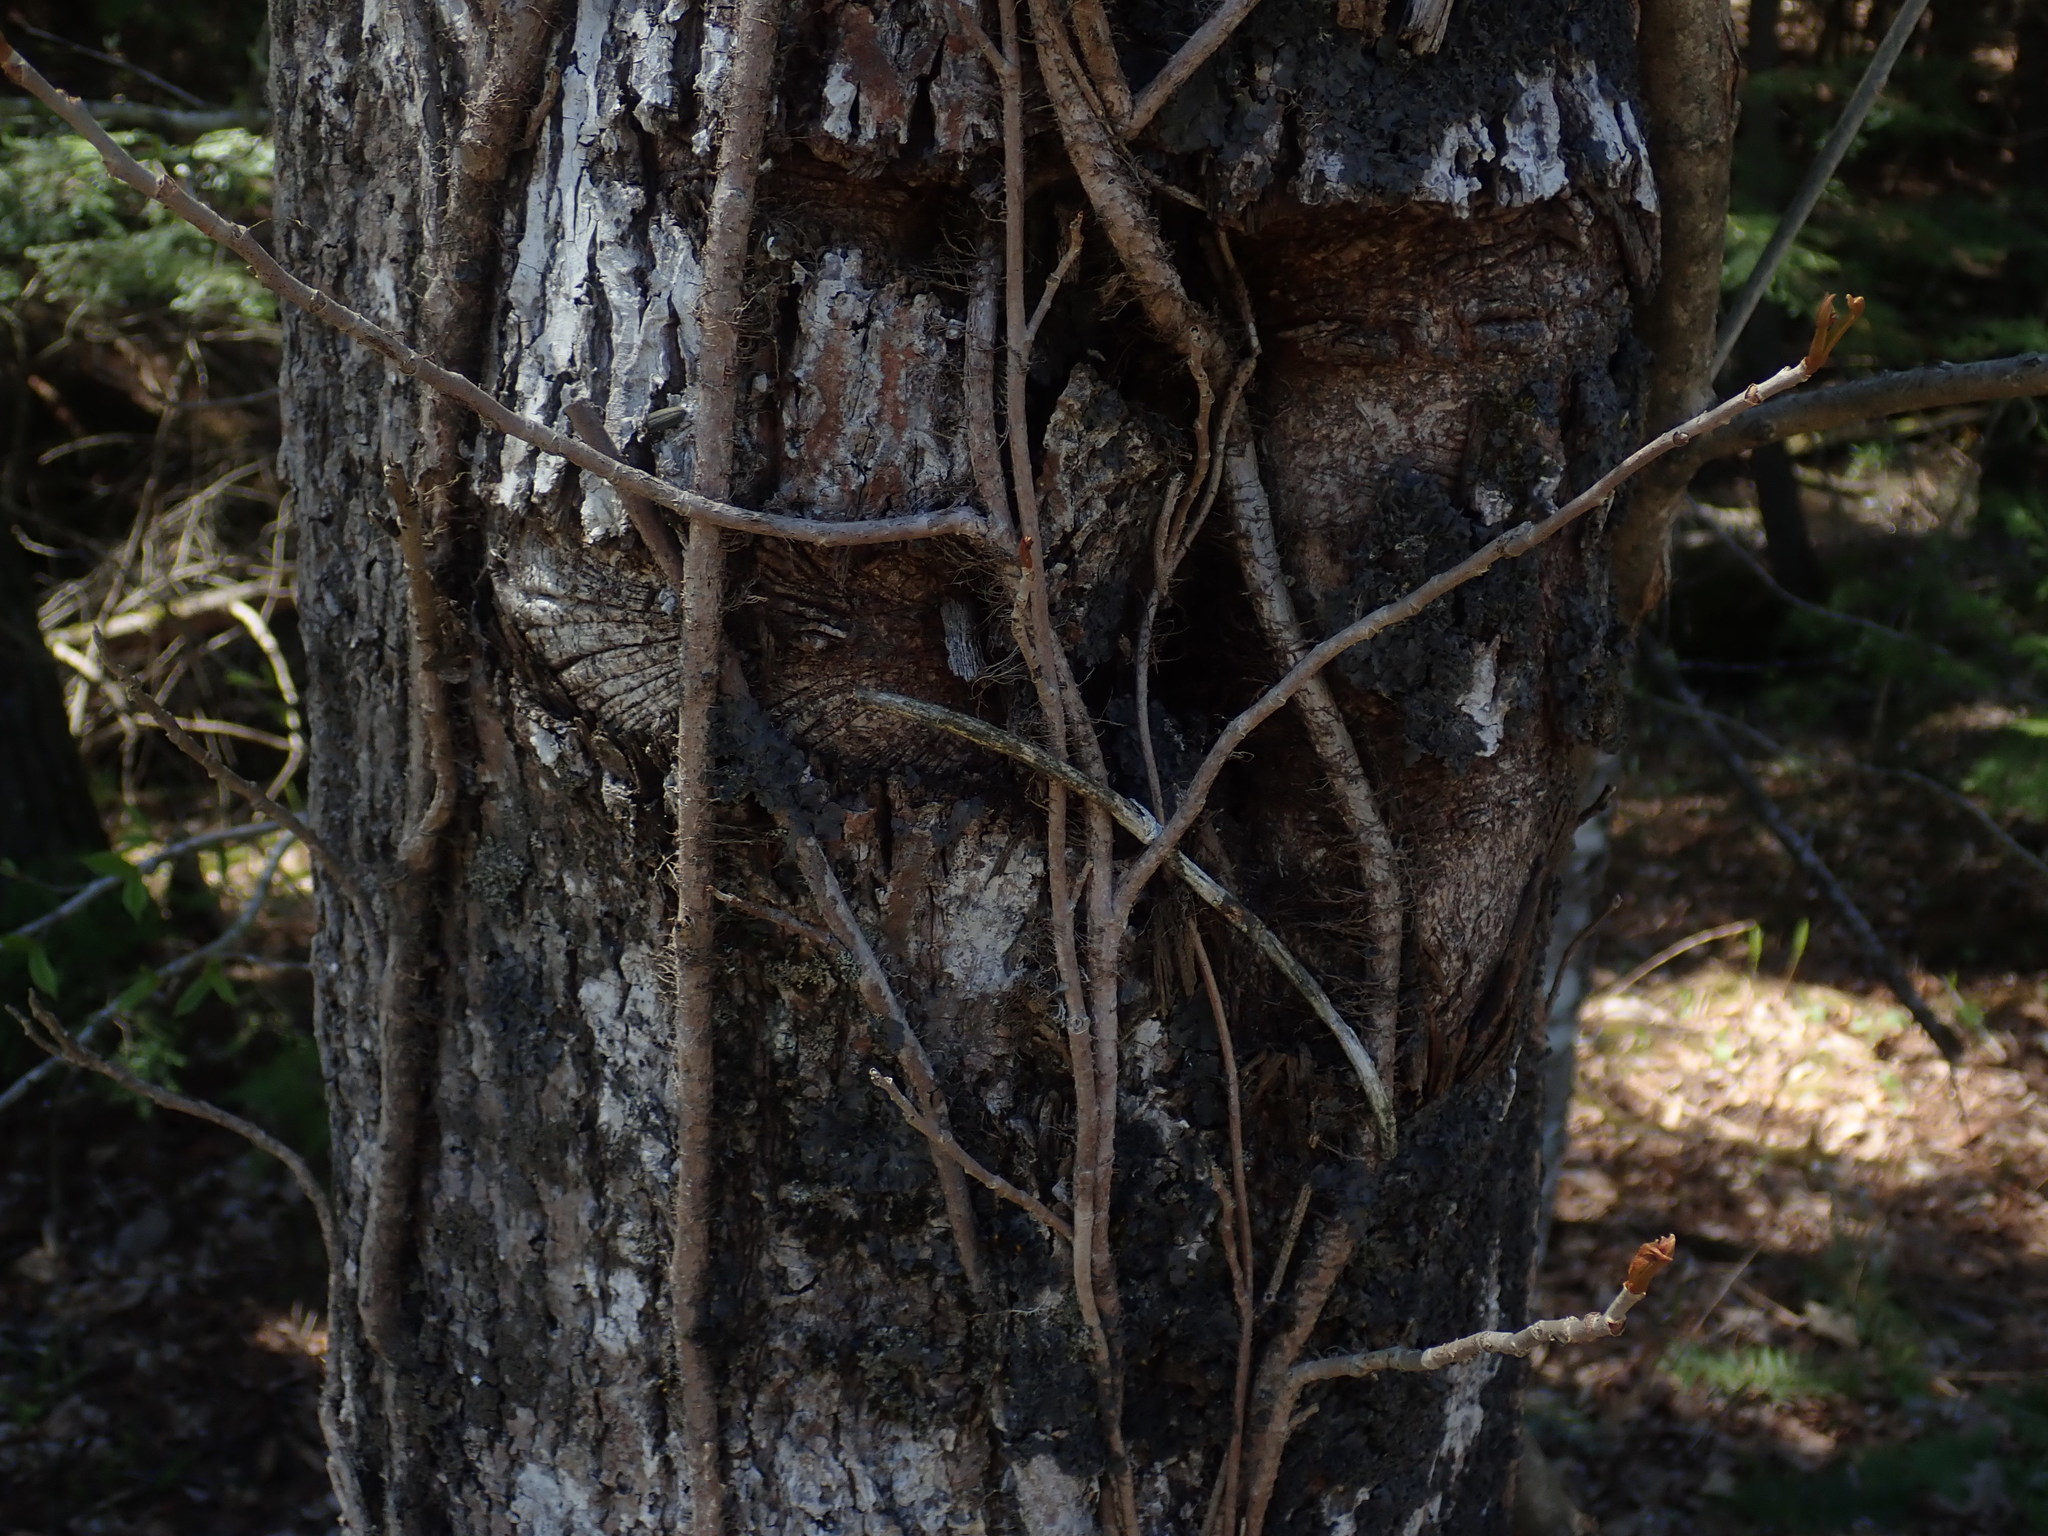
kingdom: Plantae
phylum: Tracheophyta
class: Magnoliopsida
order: Sapindales
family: Anacardiaceae
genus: Toxicodendron
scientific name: Toxicodendron radicans
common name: Poison ivy
